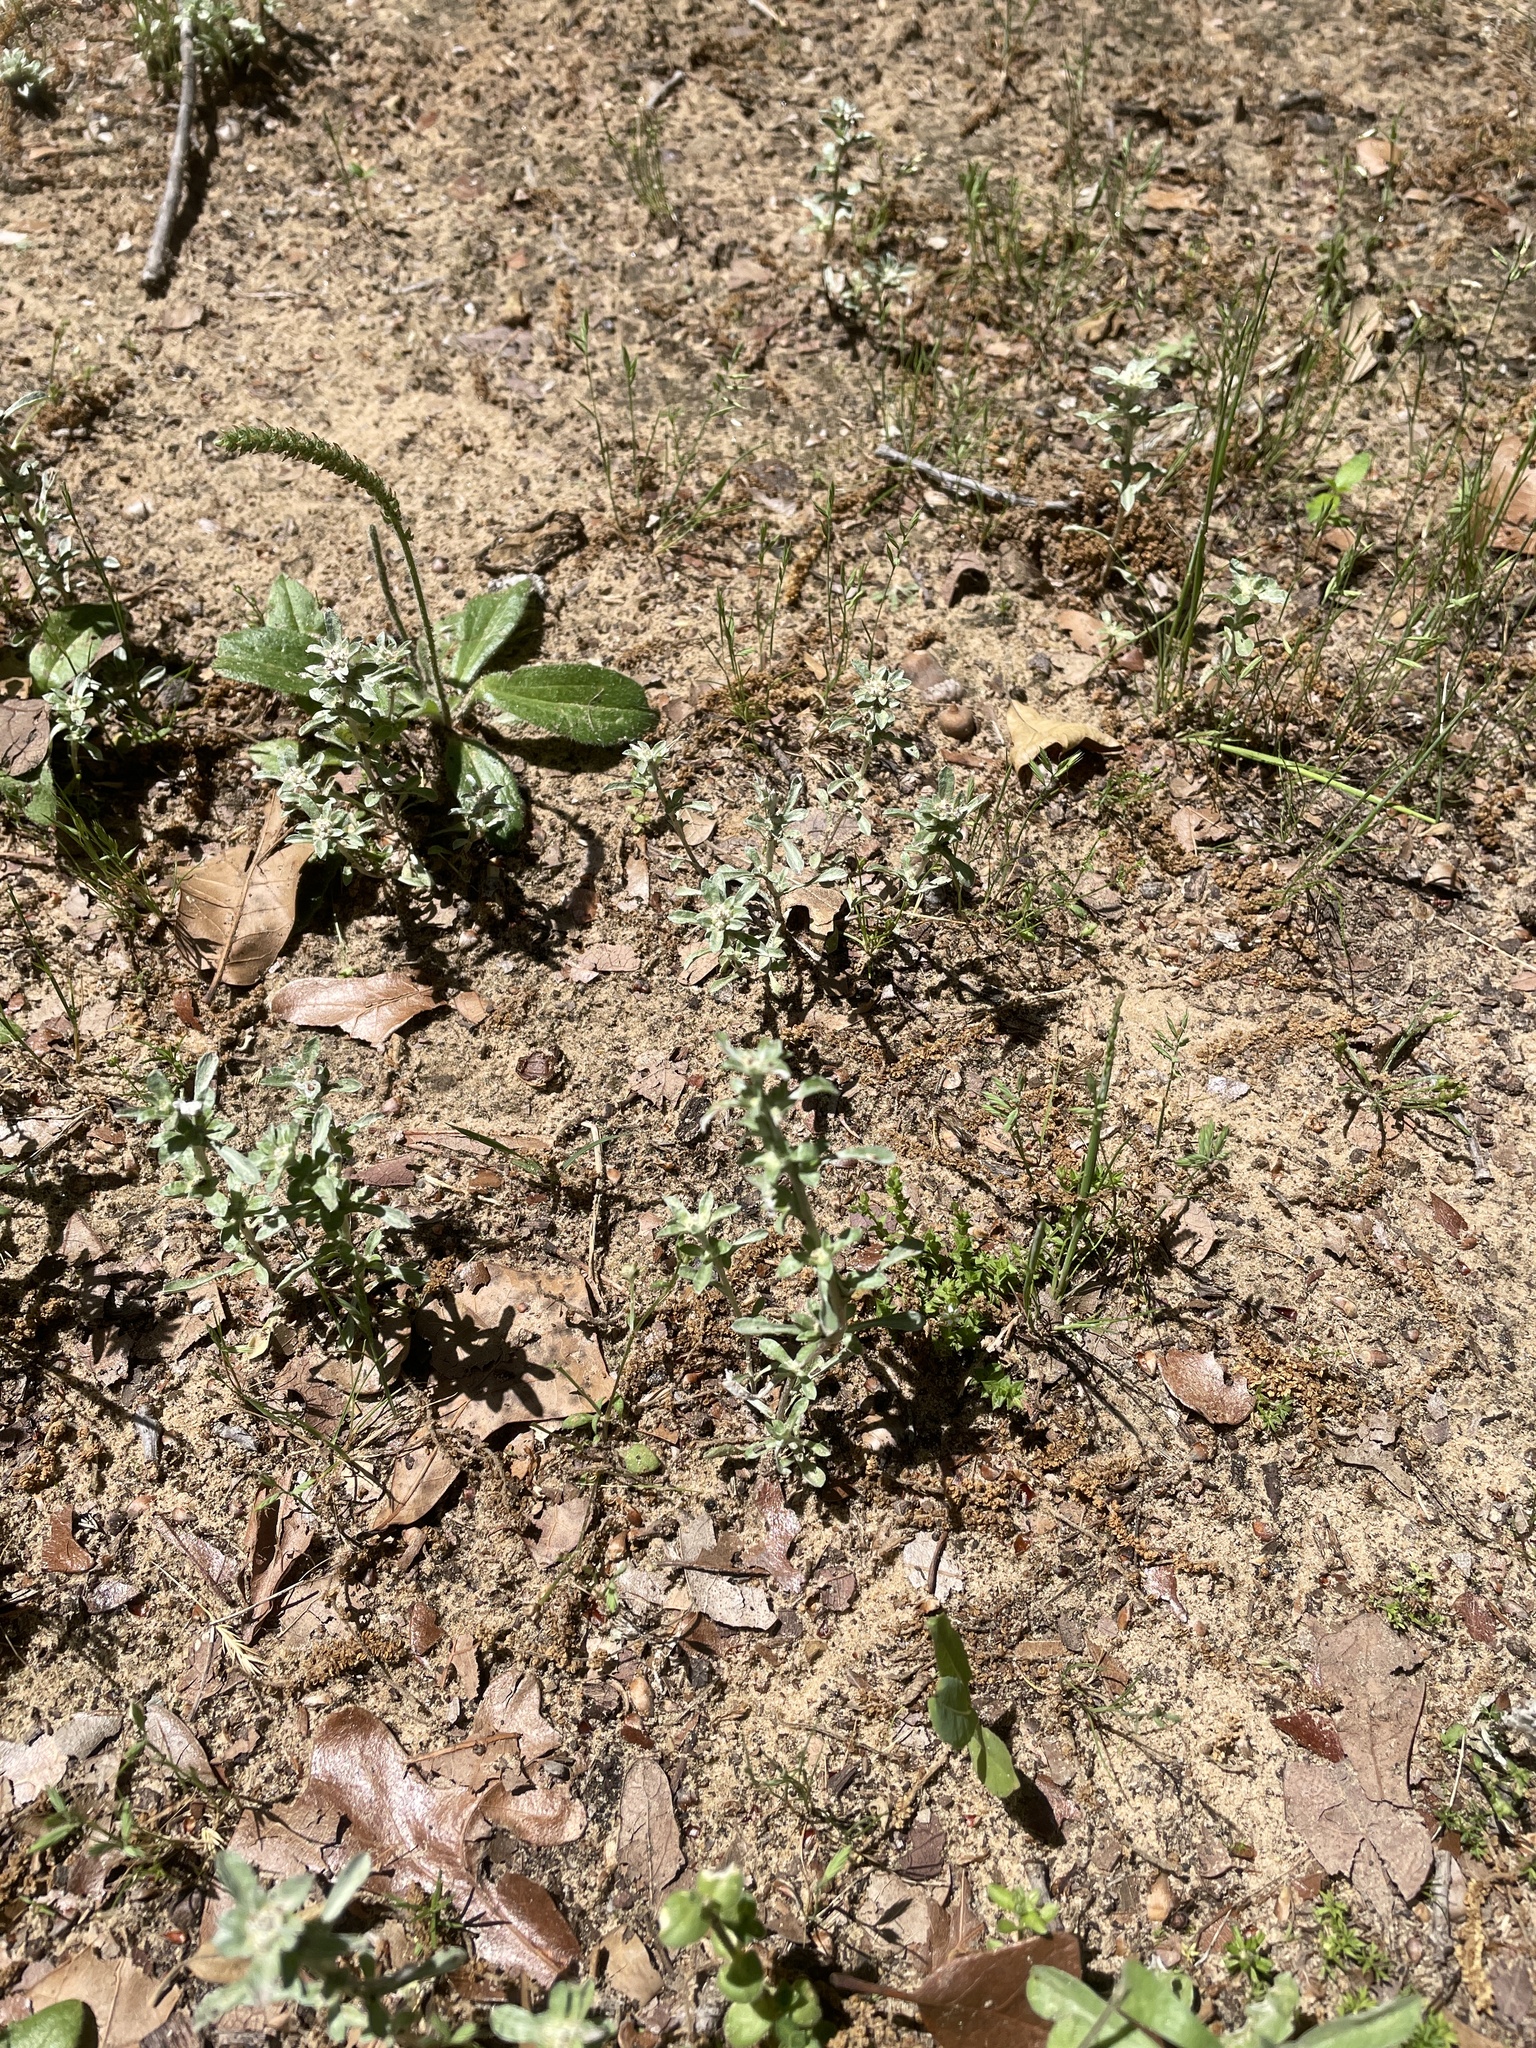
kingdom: Plantae
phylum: Tracheophyta
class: Magnoliopsida
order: Asterales
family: Asteraceae
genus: Diaperia
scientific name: Diaperia candida
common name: Silver rabbit-tobacco
